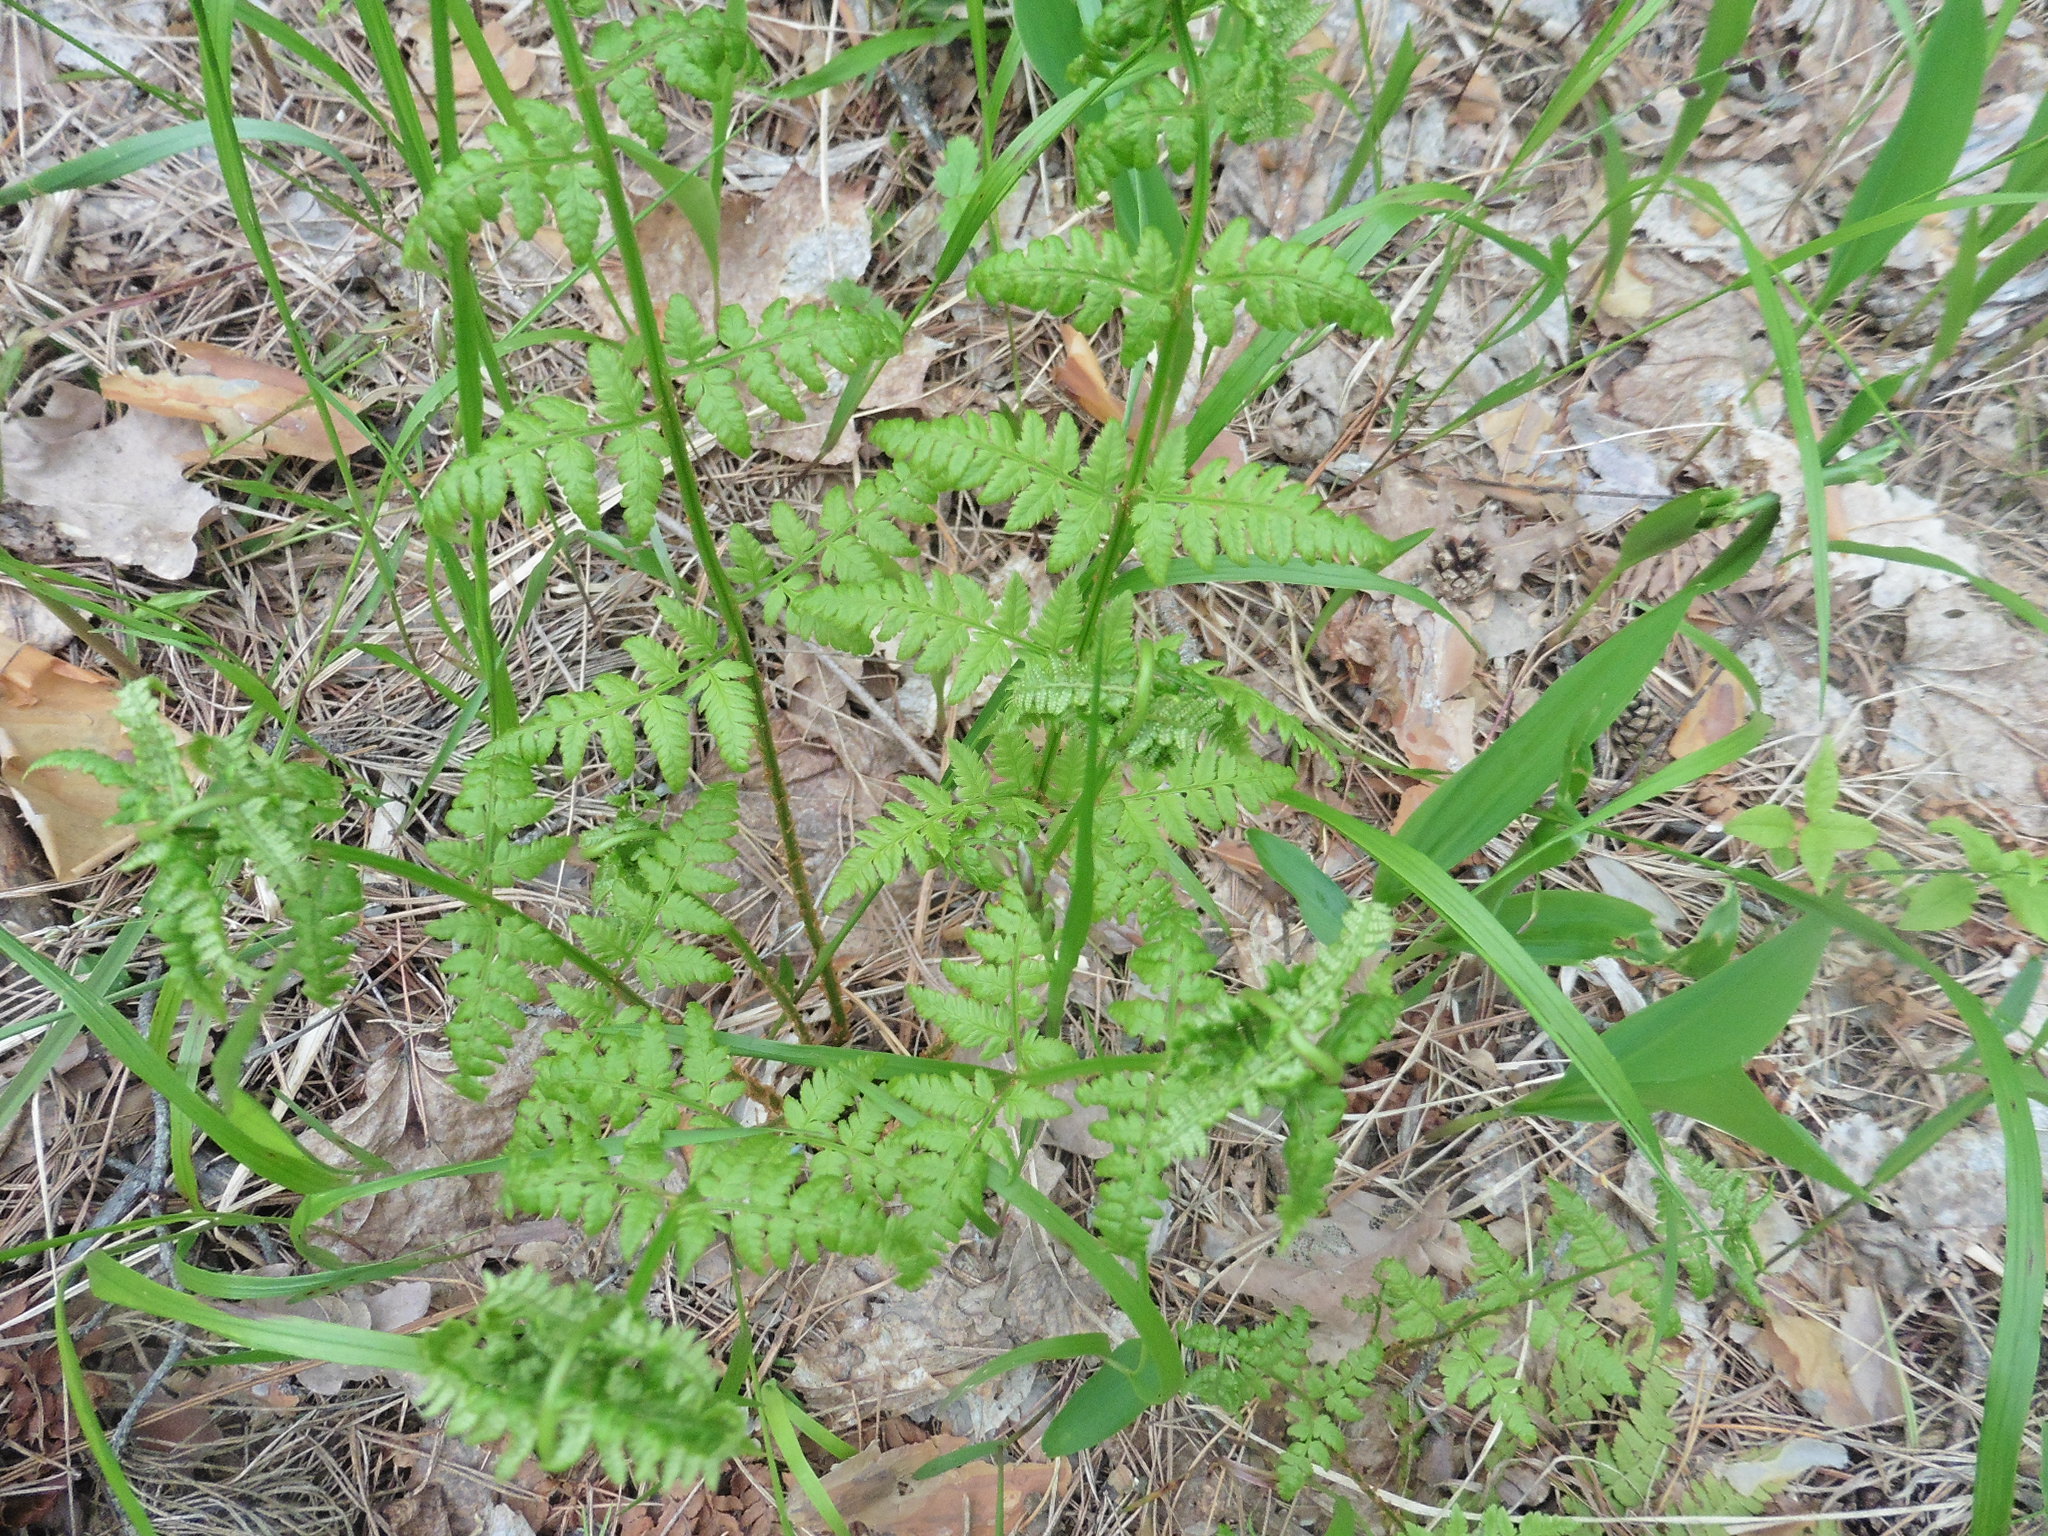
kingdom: Plantae
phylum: Tracheophyta
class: Polypodiopsida
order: Polypodiales
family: Dryopteridaceae
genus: Dryopteris
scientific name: Dryopteris carthusiana
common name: Narrow buckler-fern
